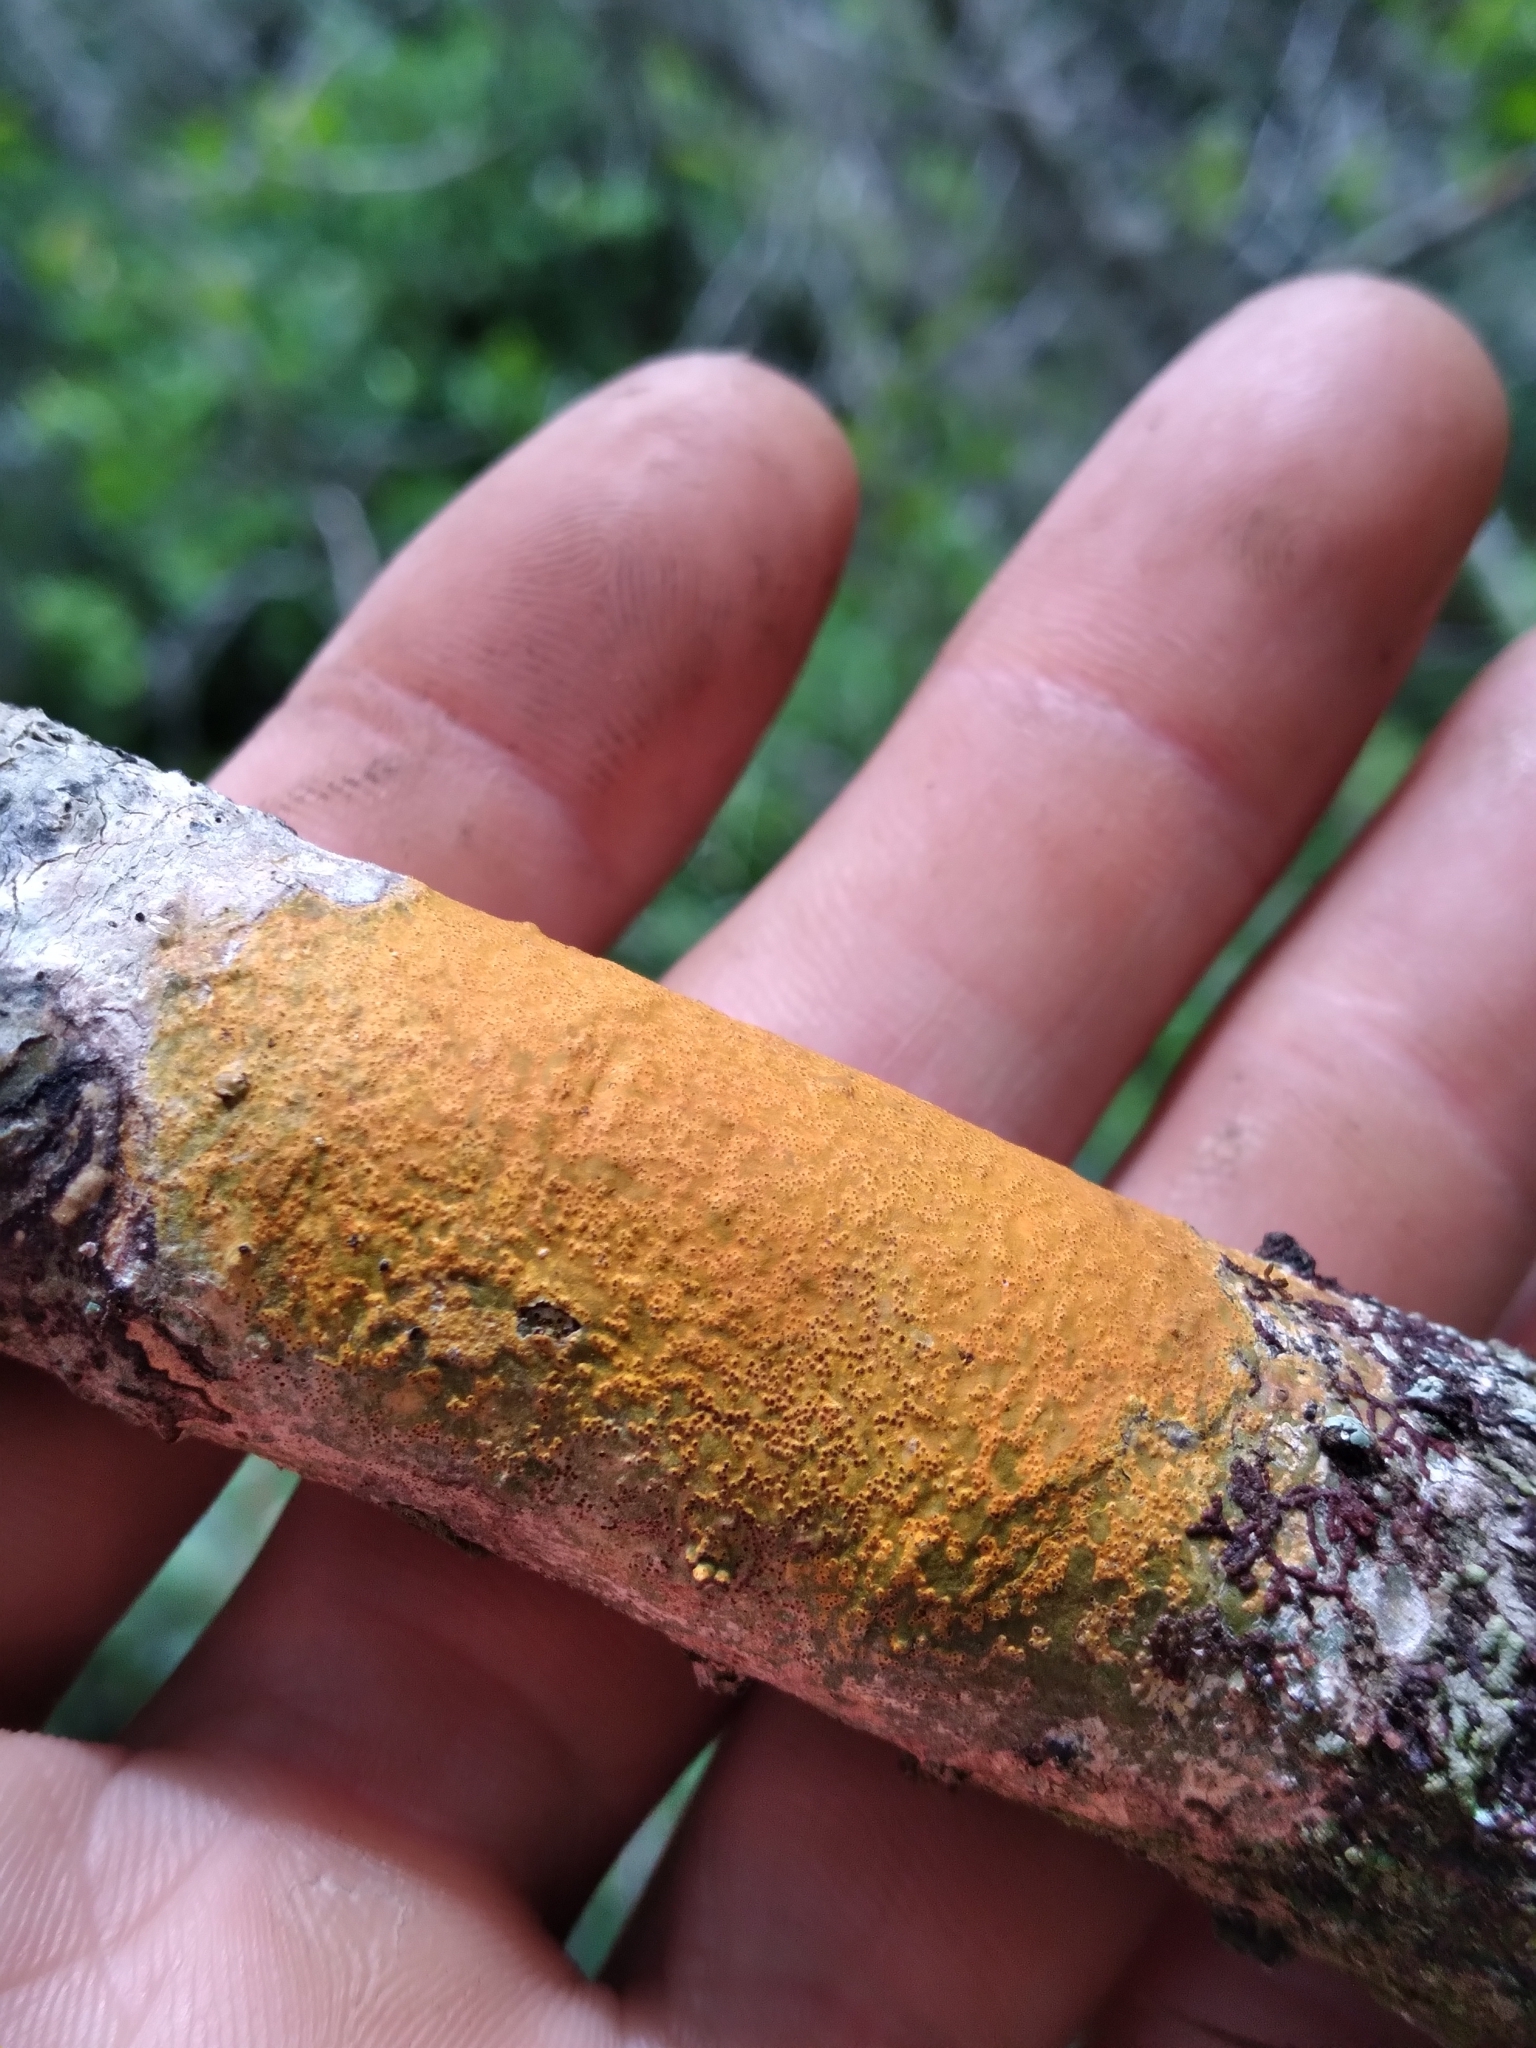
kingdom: Fungi
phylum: Ascomycota
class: Dothideomycetes
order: Trypetheliales
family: Trypetheliaceae
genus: Astrothelium
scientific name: Astrothelium aeneum
